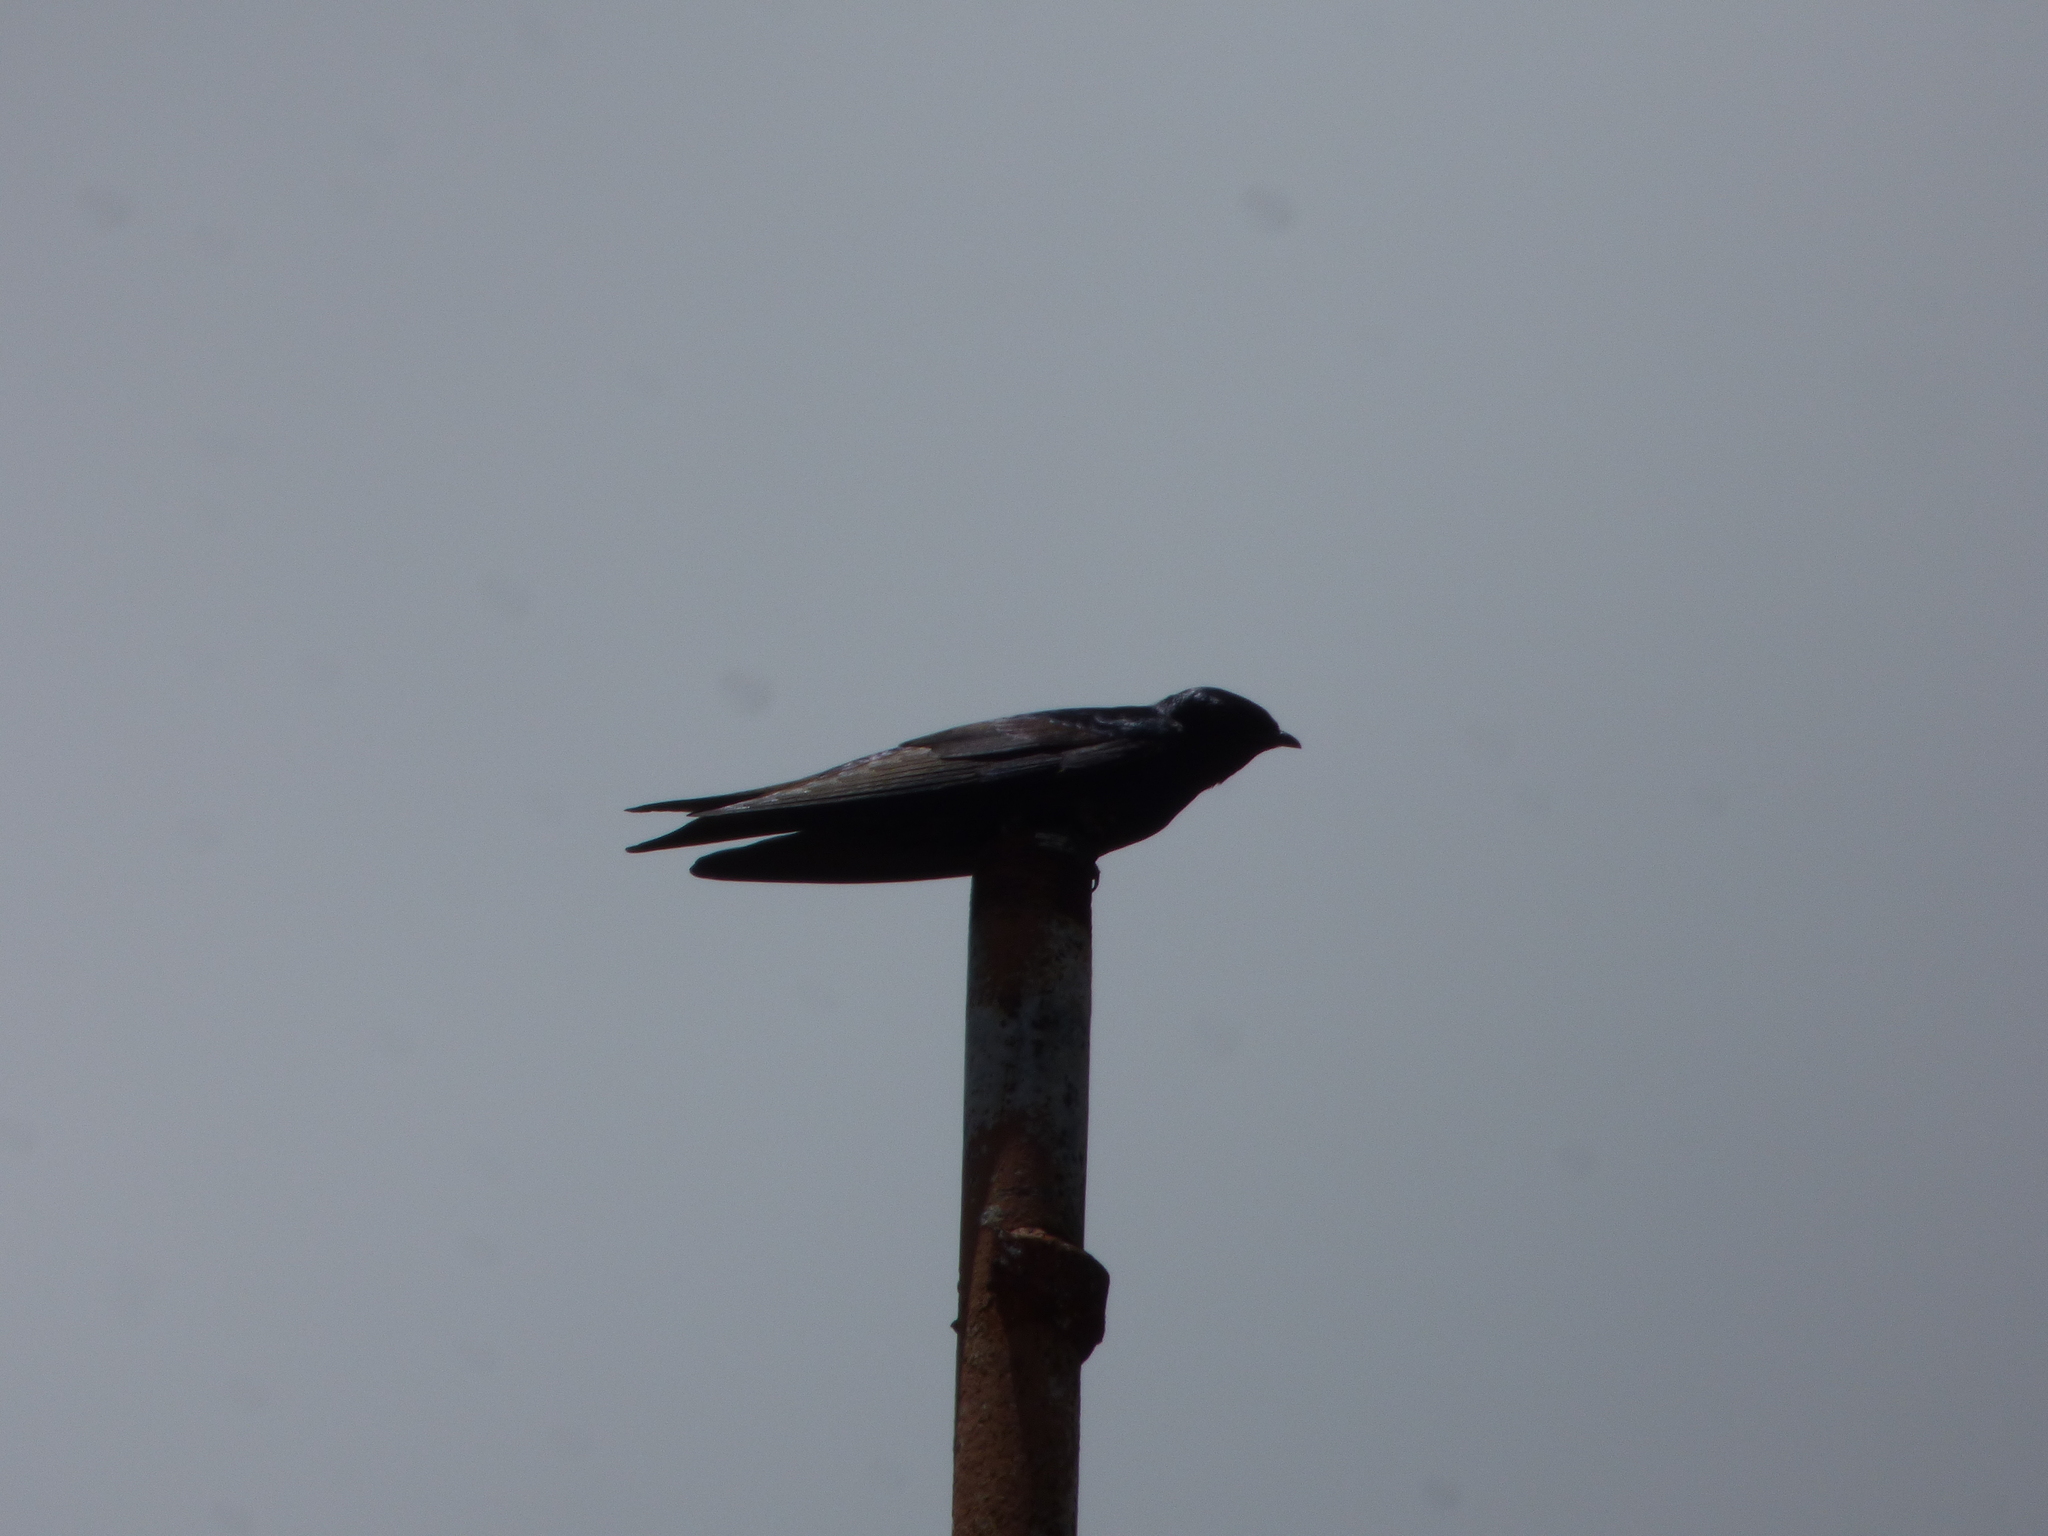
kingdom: Animalia
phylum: Chordata
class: Aves
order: Passeriformes
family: Hirundinidae
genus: Progne
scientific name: Progne elegans
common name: Southern martin
